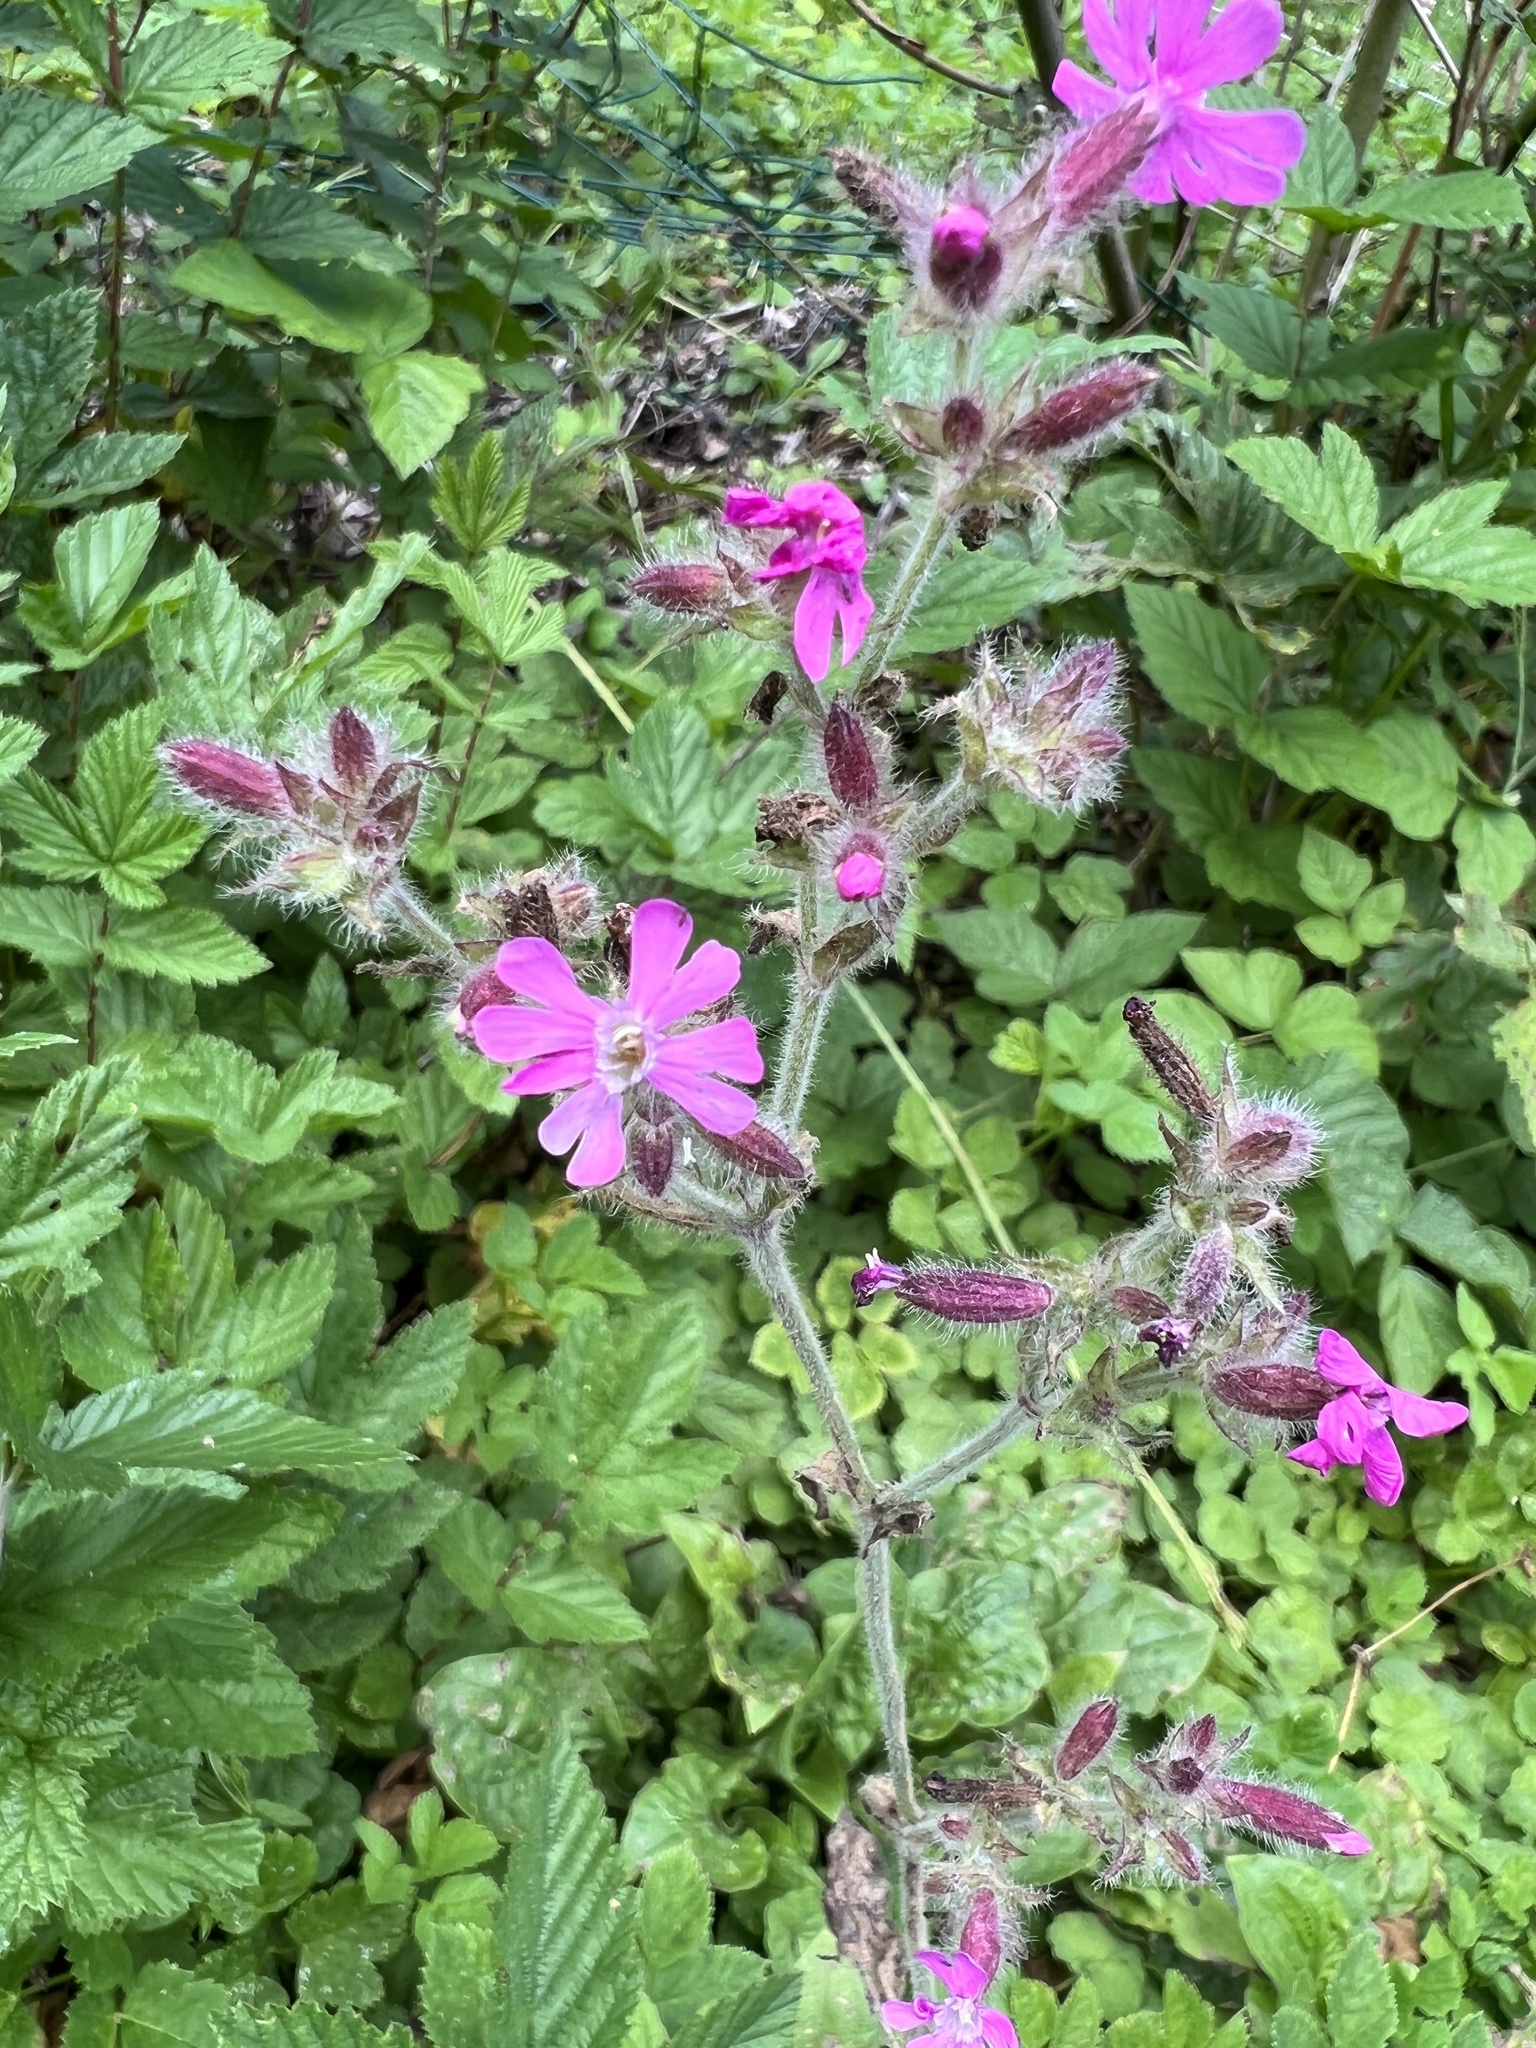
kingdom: Plantae
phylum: Tracheophyta
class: Magnoliopsida
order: Caryophyllales
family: Caryophyllaceae
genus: Silene
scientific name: Silene dioica
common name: Red campion
